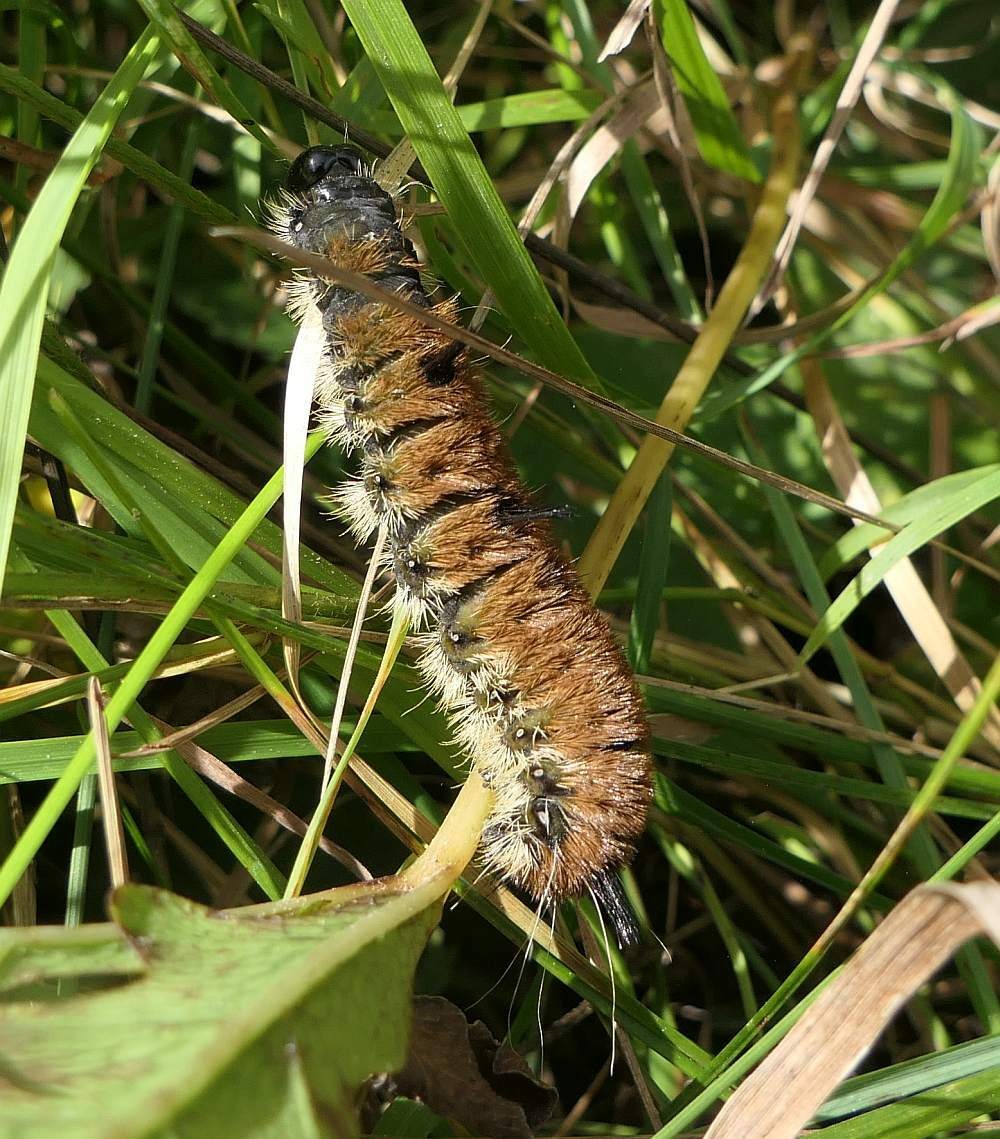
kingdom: Animalia
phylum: Arthropoda
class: Insecta
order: Lepidoptera
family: Noctuidae
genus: Acronicta
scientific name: Acronicta insita
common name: Large gray dagger
